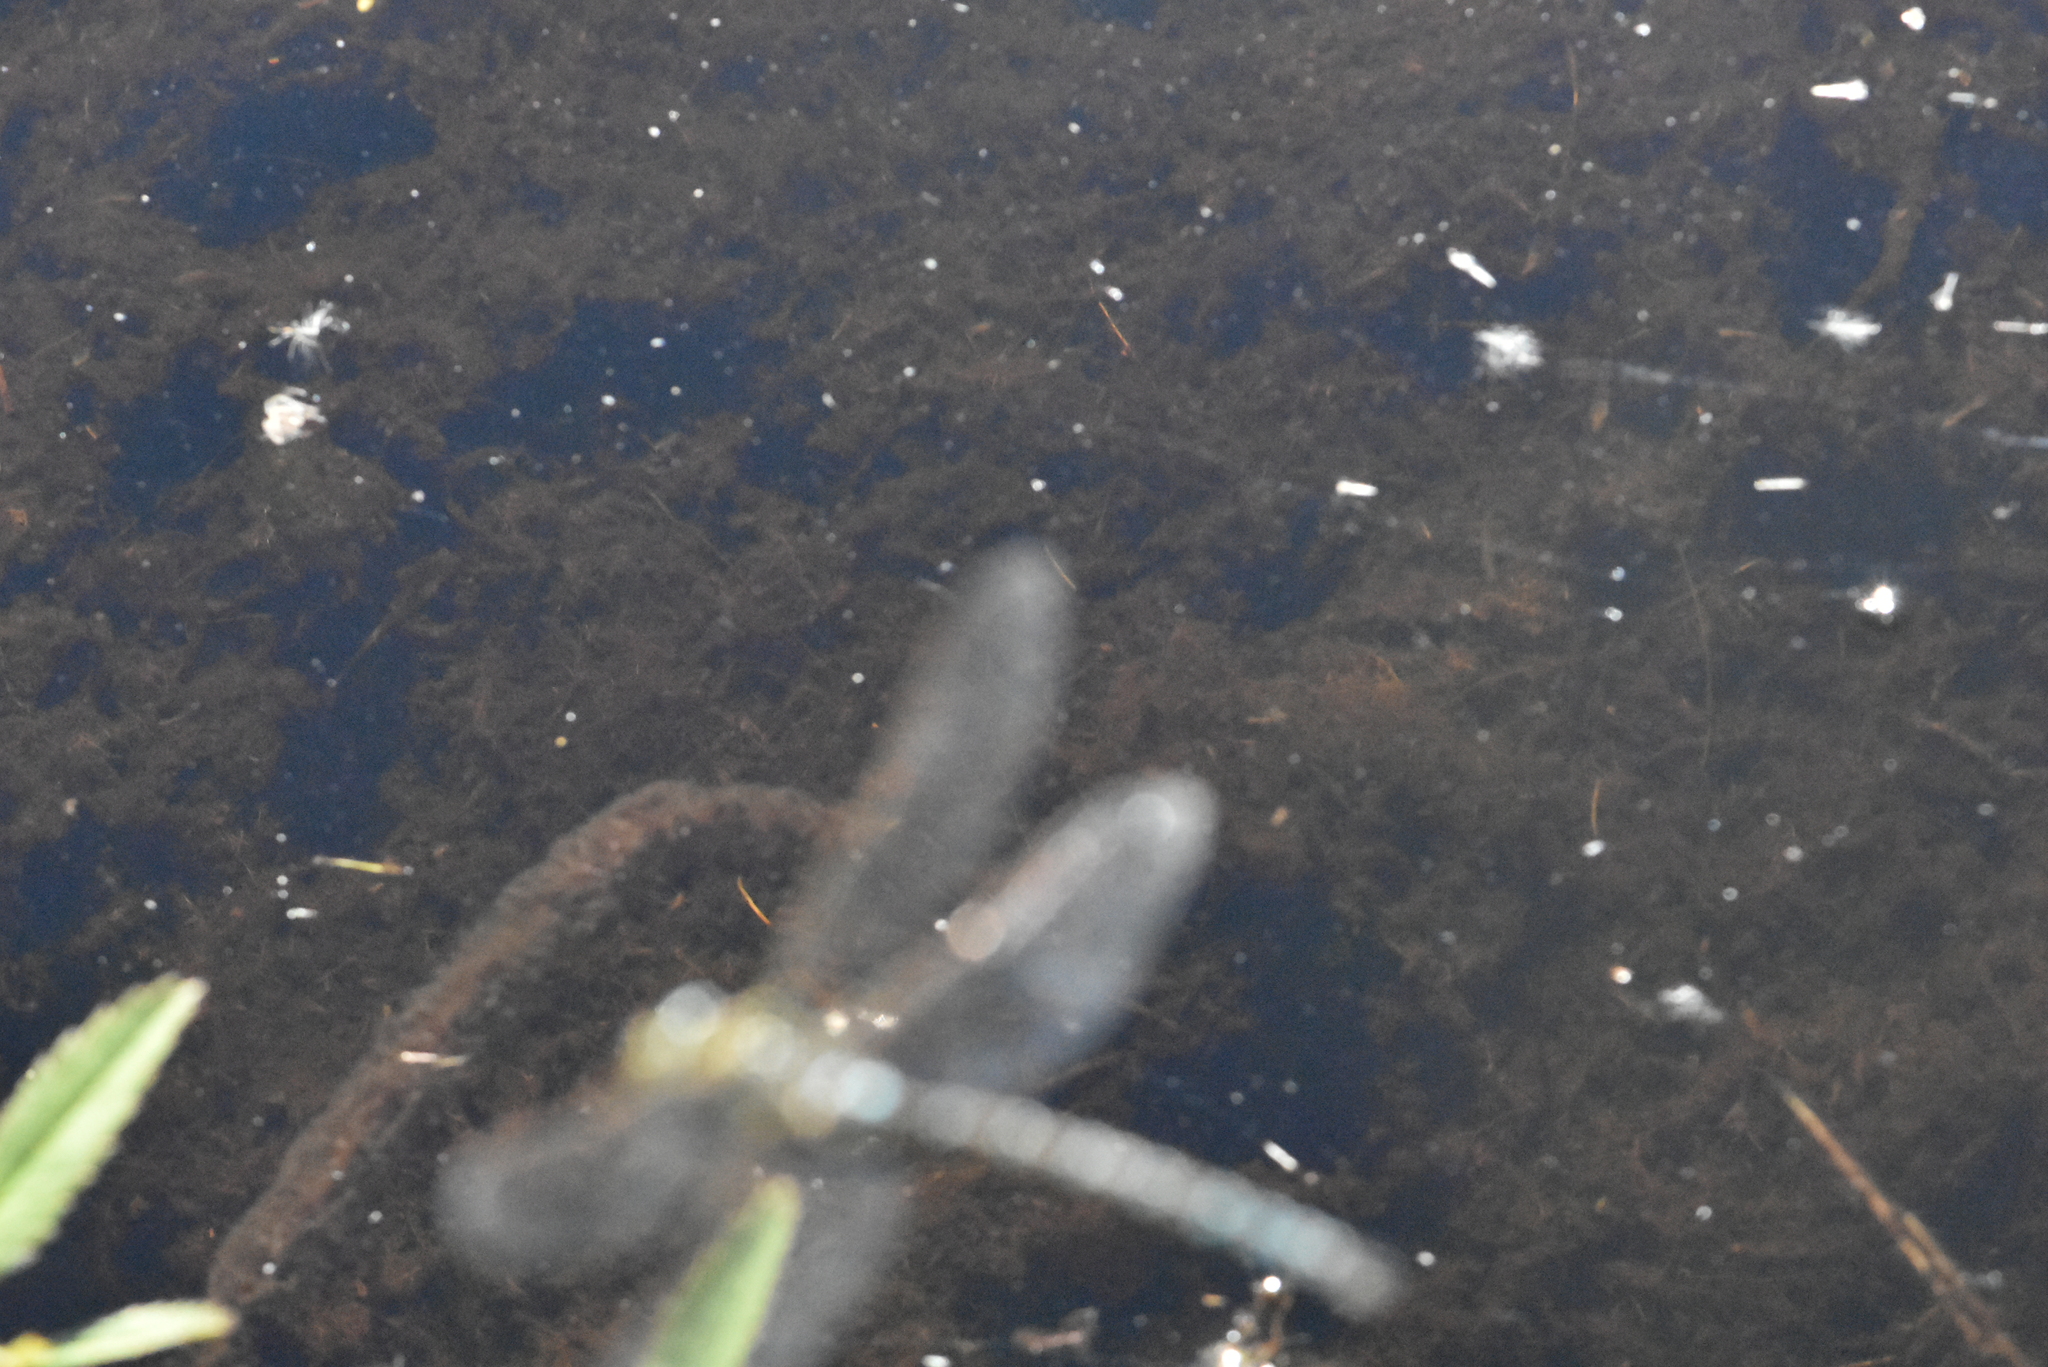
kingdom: Animalia
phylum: Arthropoda
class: Insecta
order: Odonata
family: Aeshnidae
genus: Aeshna
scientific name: Aeshna cyanea
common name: Southern hawker
